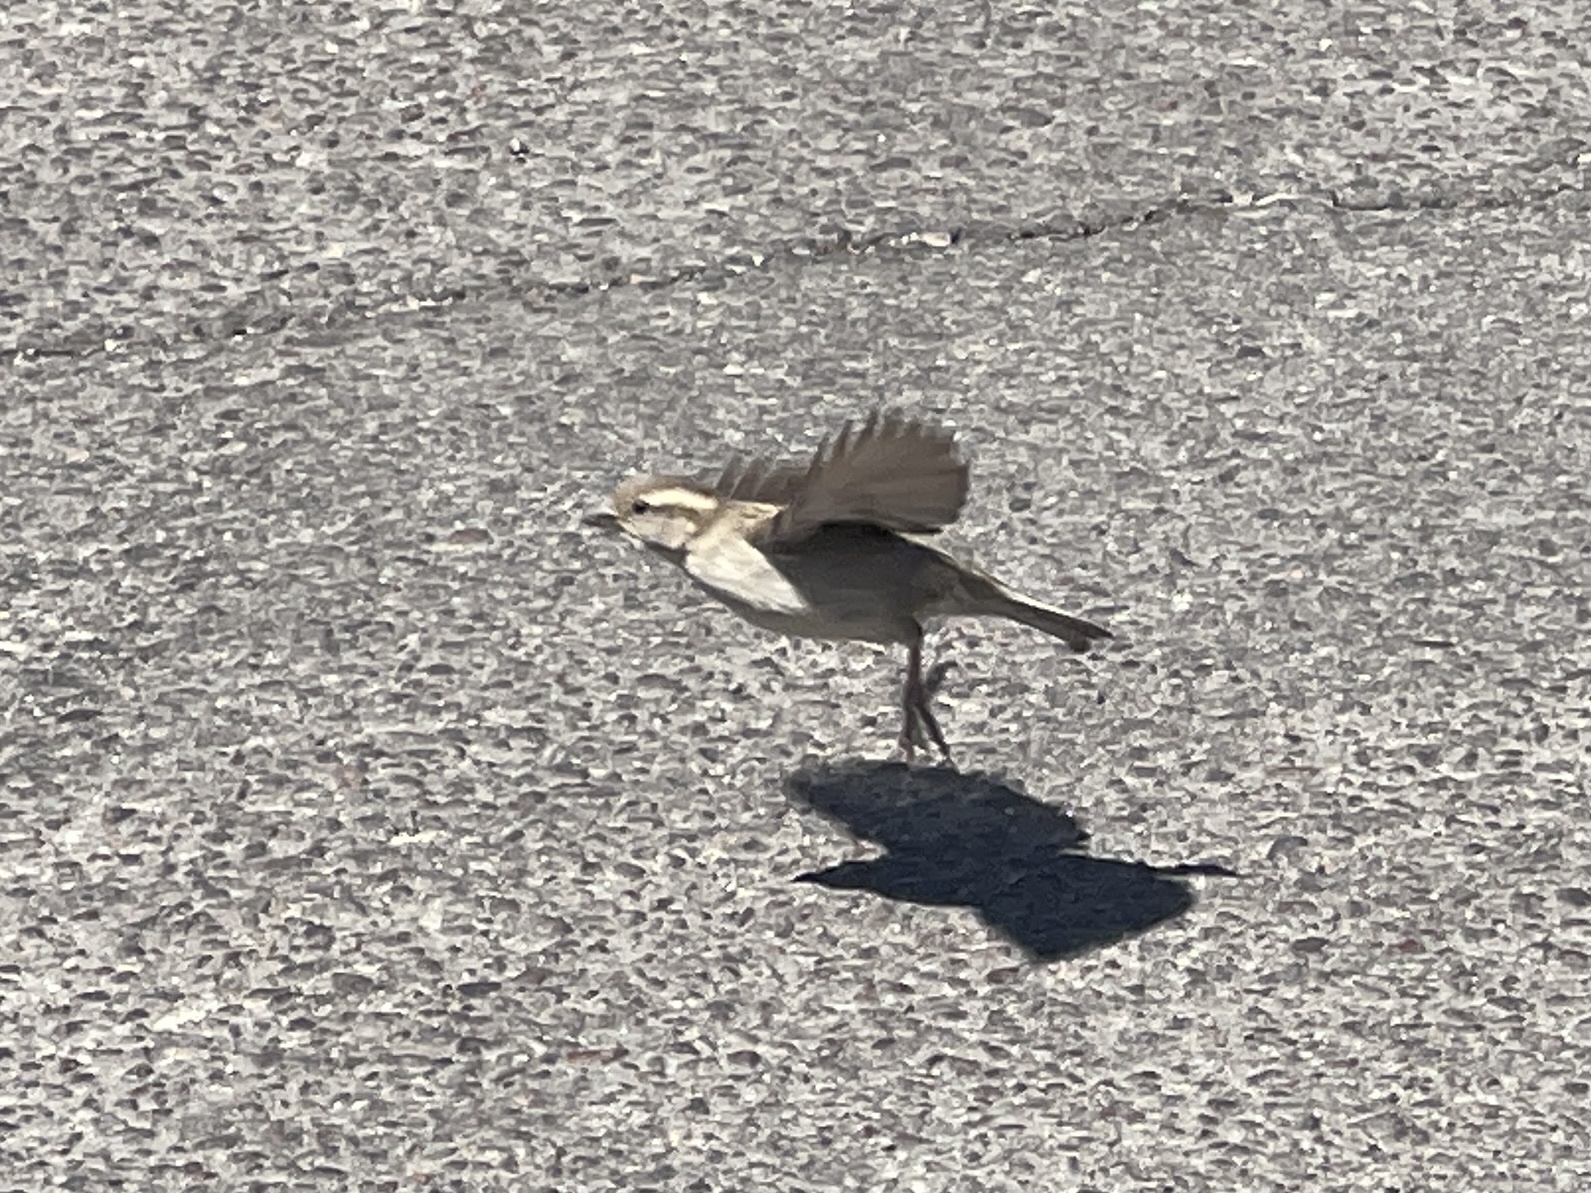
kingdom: Animalia
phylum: Chordata
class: Aves
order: Passeriformes
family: Passeridae
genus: Passer
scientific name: Passer domesticus
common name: House sparrow
